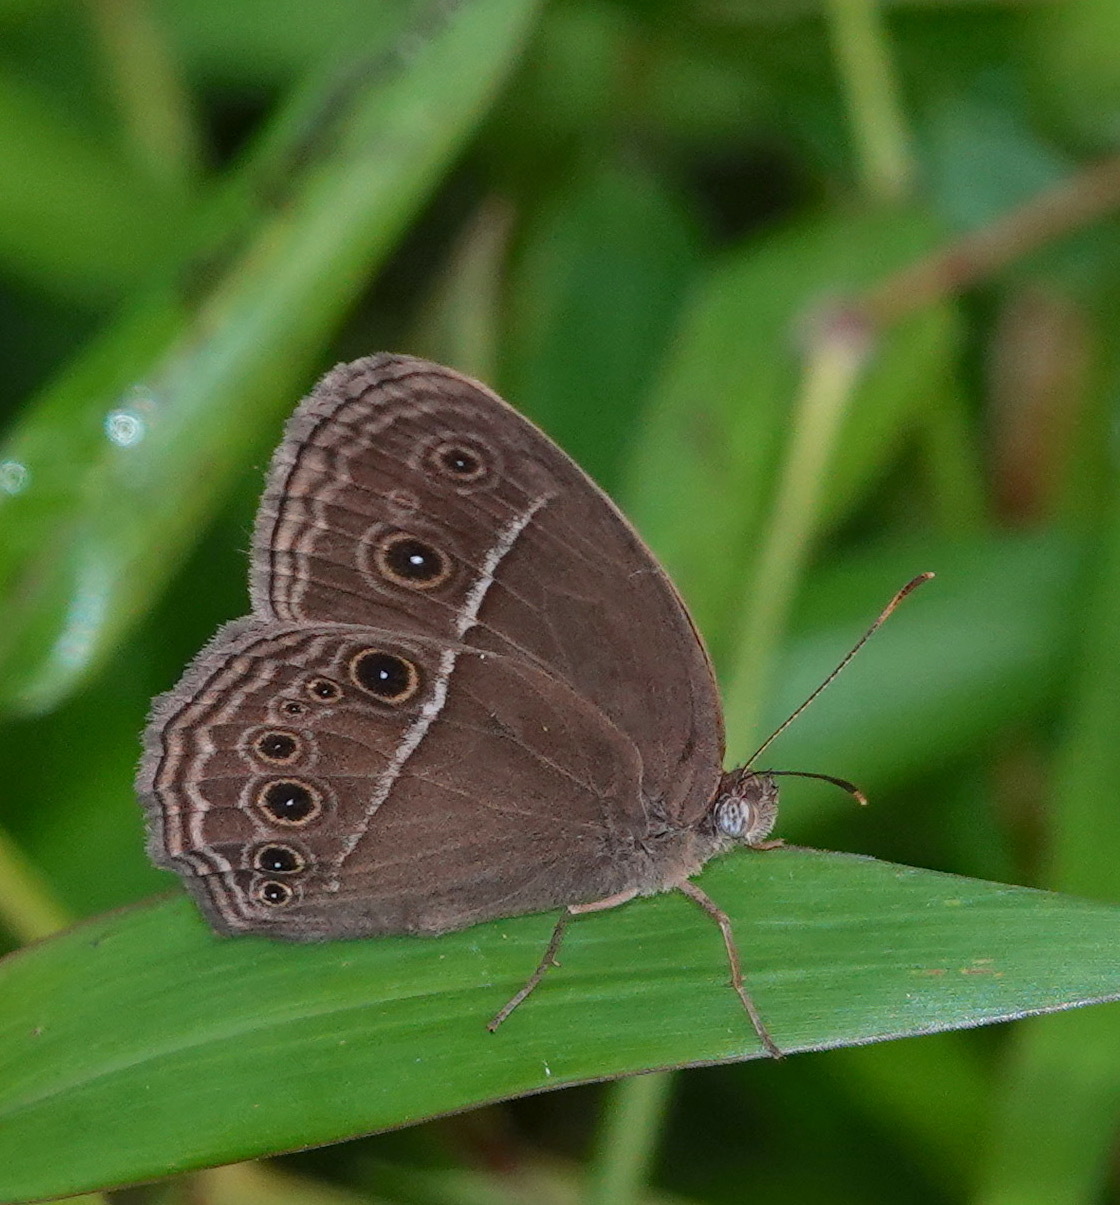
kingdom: Animalia
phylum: Arthropoda
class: Insecta
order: Lepidoptera
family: Nymphalidae
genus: Mycalesis
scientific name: Mycalesis horsfieldii
